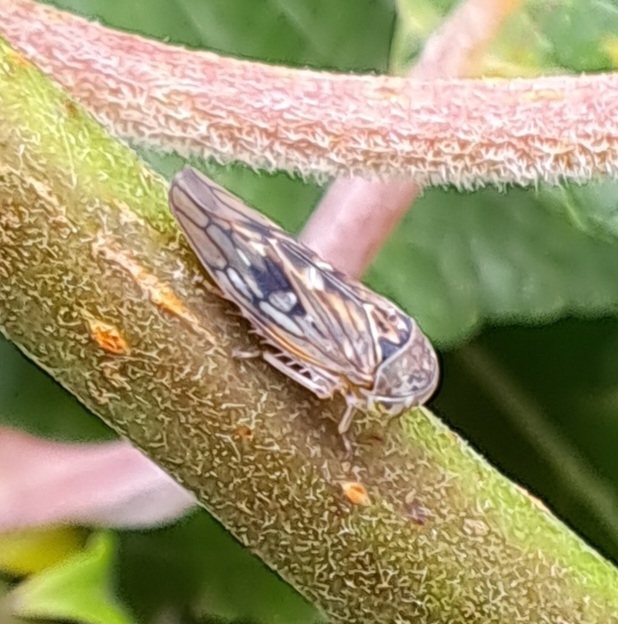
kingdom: Animalia
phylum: Arthropoda
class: Insecta
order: Hemiptera
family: Cicadellidae
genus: Idiocerus
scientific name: Idiocerus lituratus
